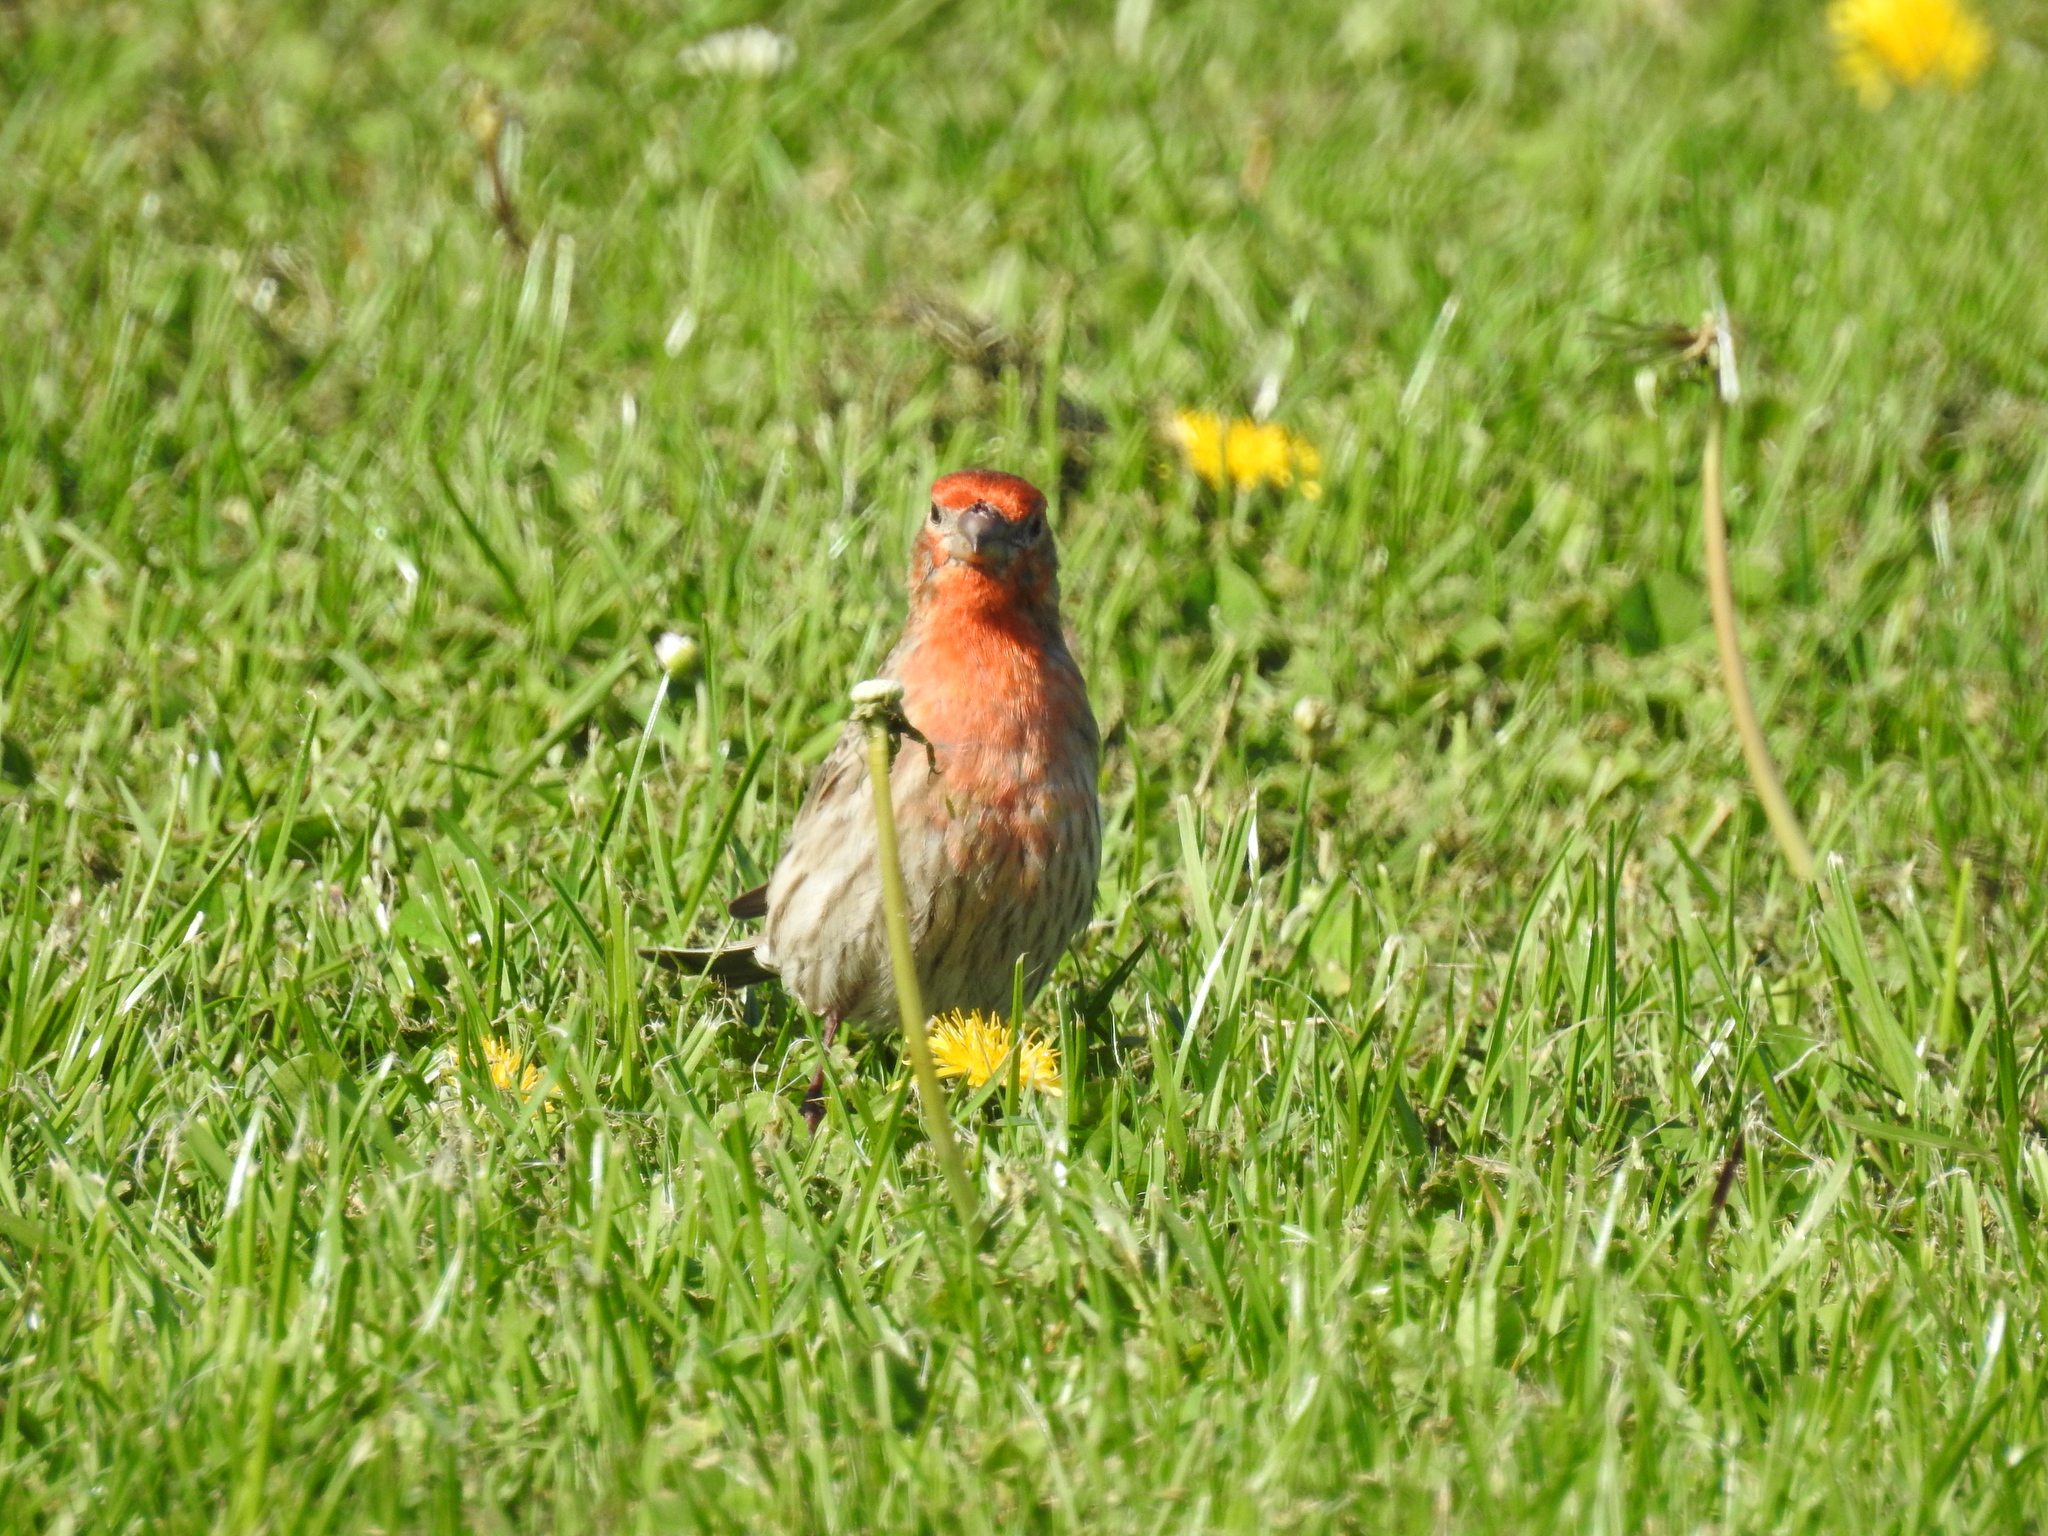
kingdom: Animalia
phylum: Chordata
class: Aves
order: Passeriformes
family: Fringillidae
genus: Haemorhous
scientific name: Haemorhous mexicanus
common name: House finch
